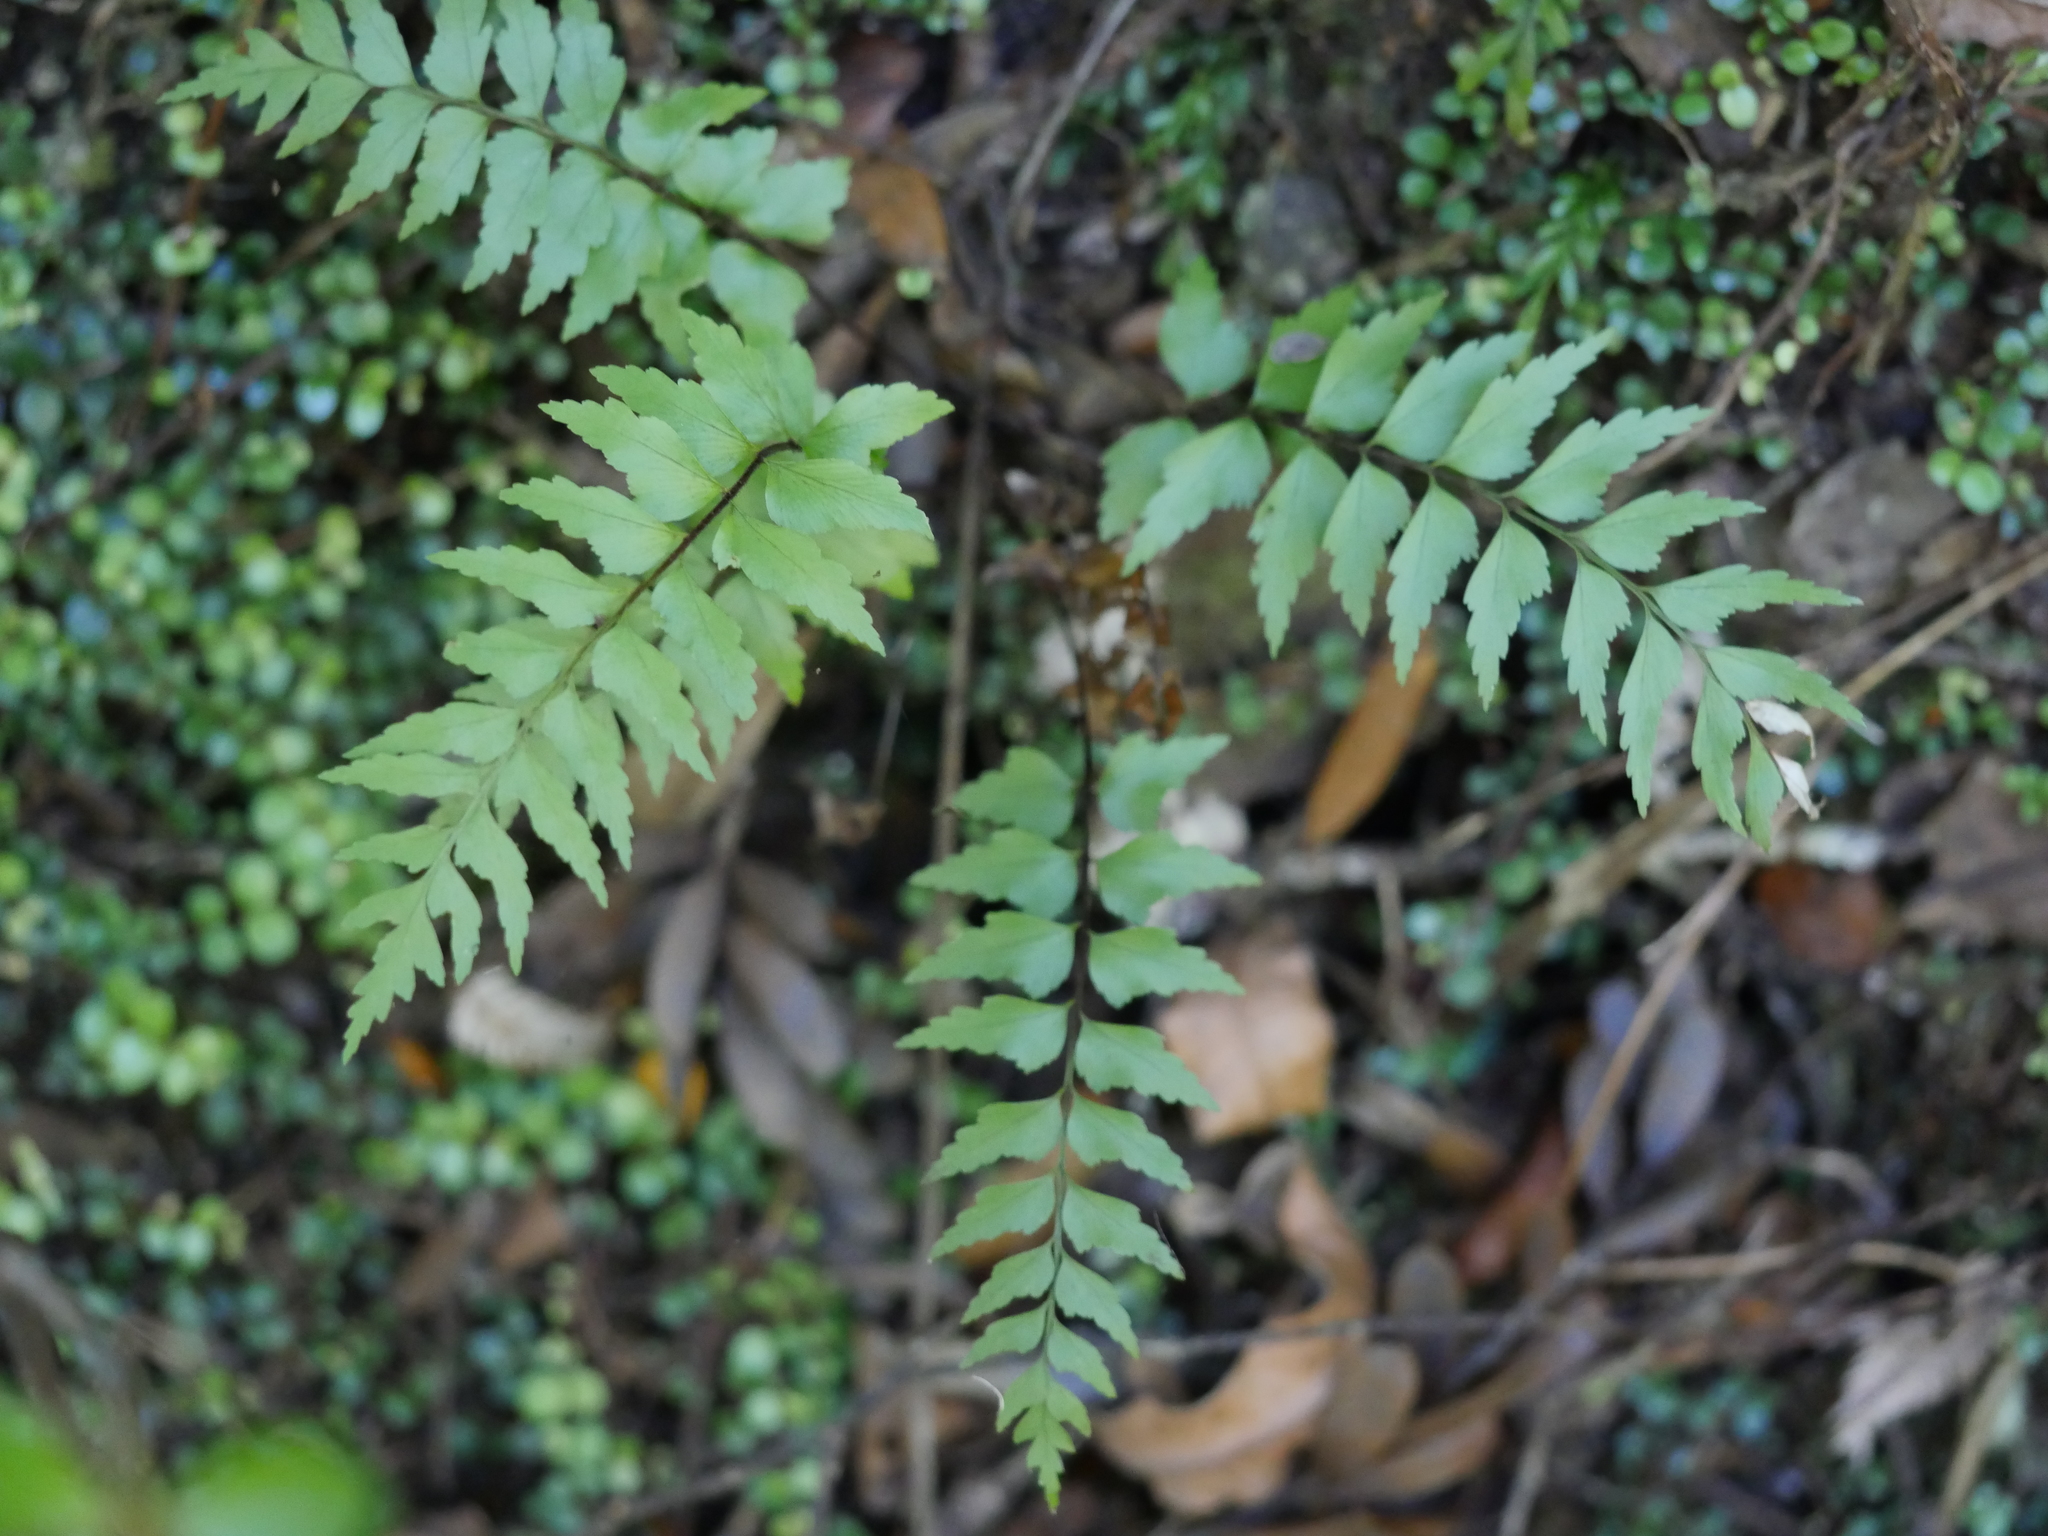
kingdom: Plantae
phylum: Tracheophyta
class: Polypodiopsida
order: Polypodiales
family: Aspleniaceae
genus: Asplenium
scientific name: Asplenium polyodon
